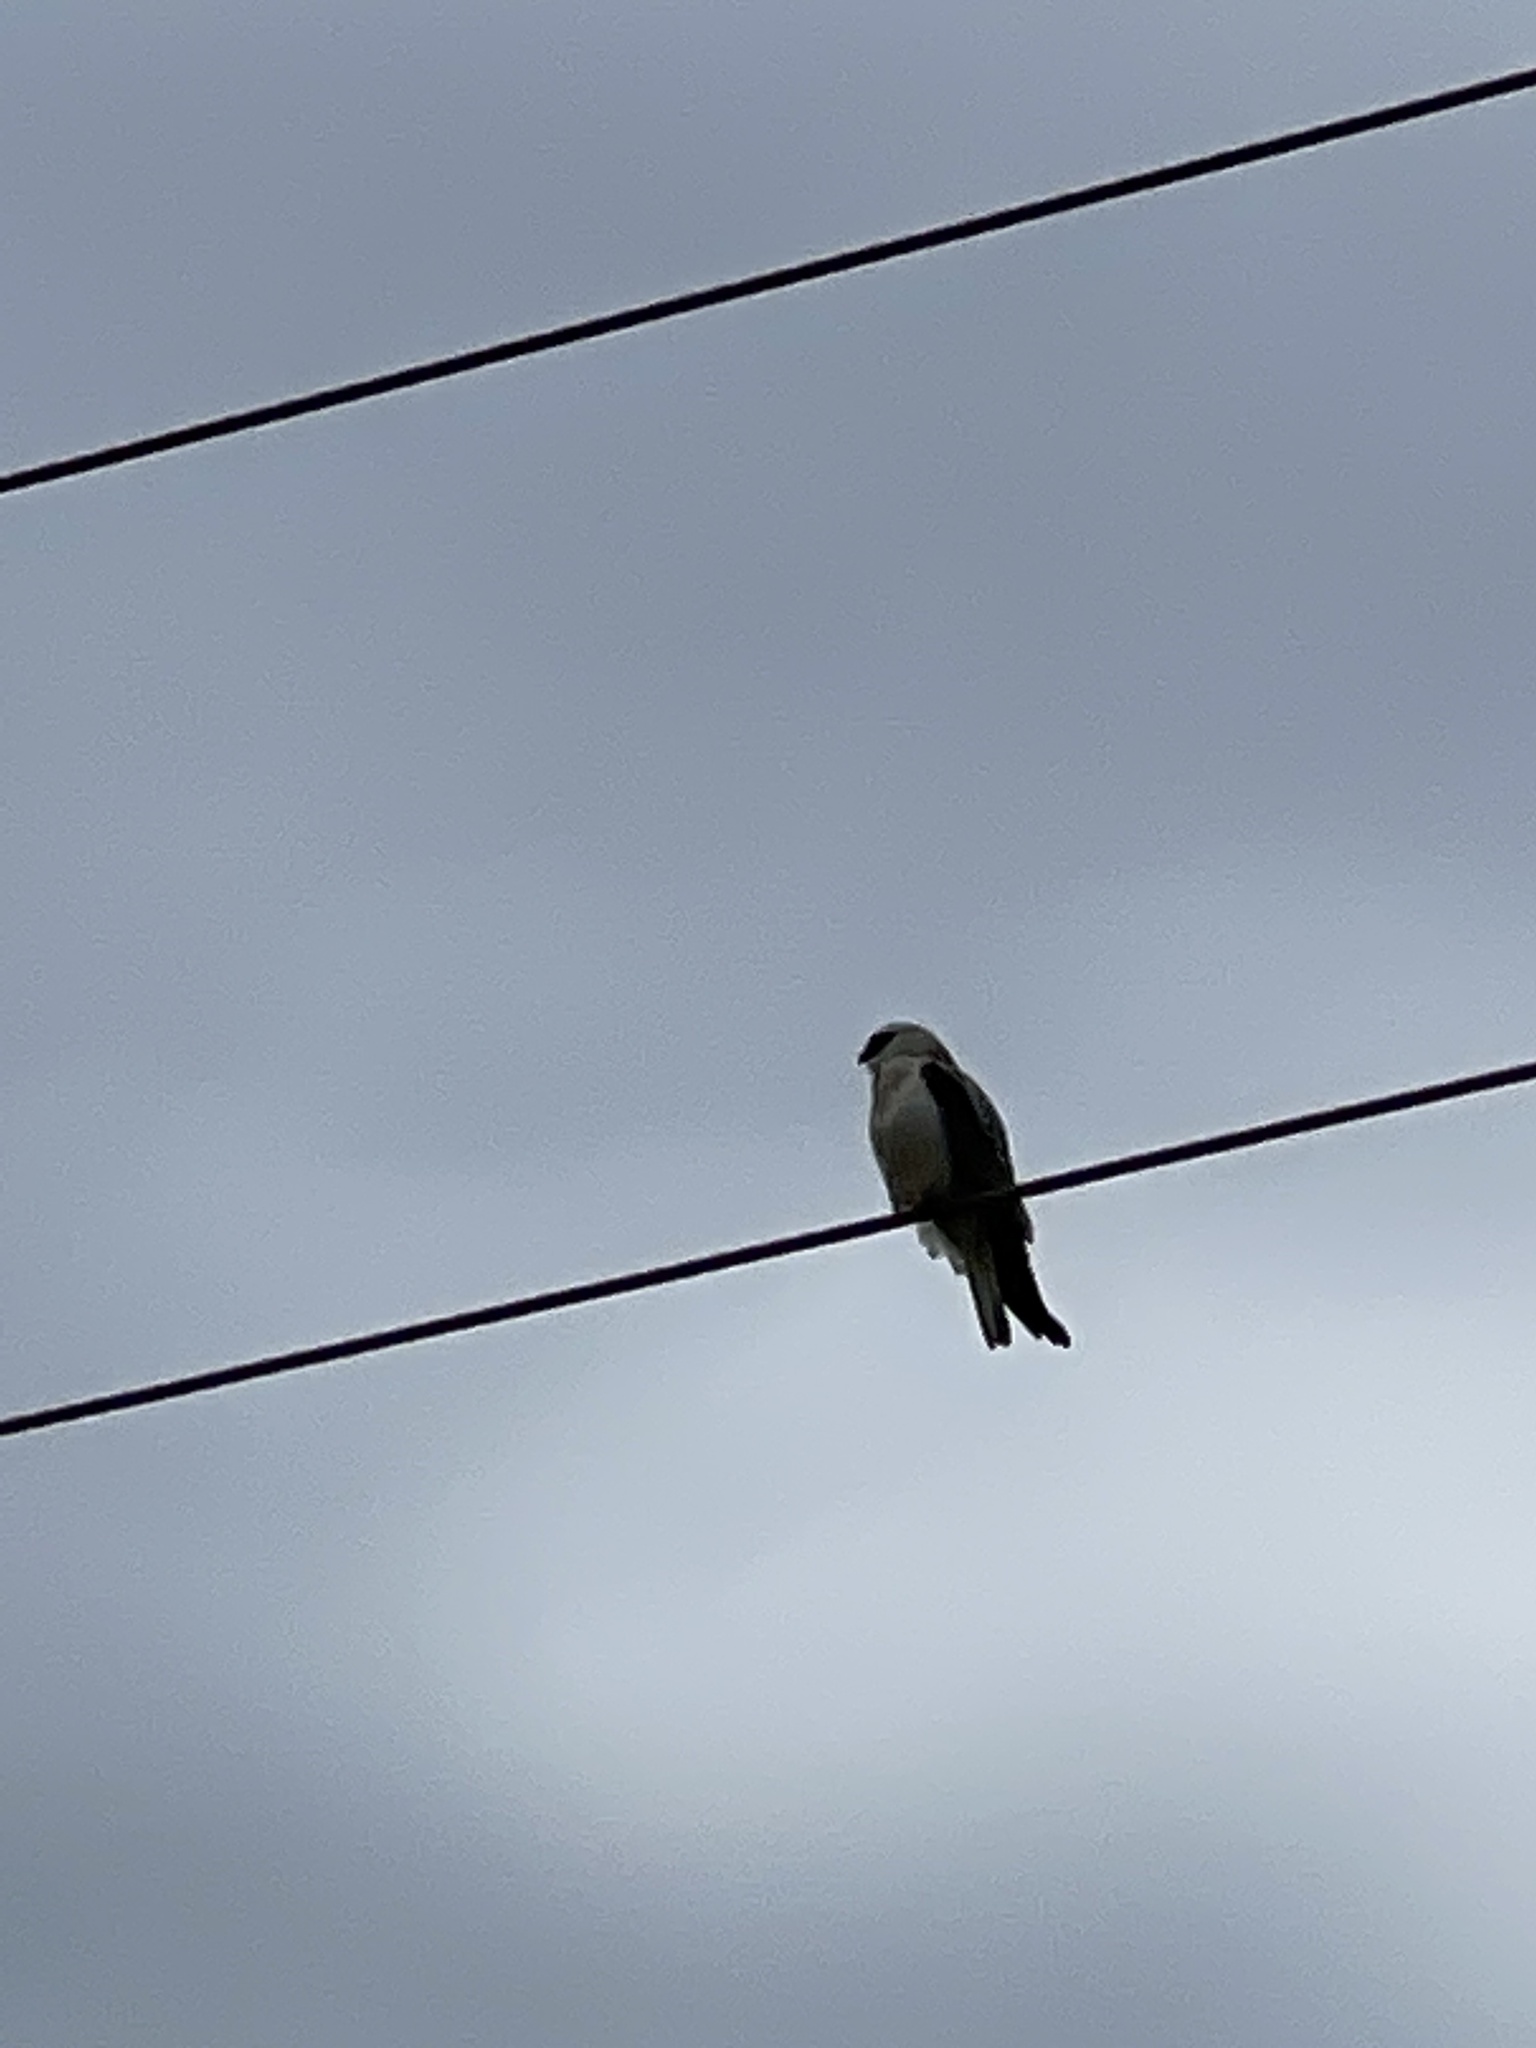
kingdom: Animalia
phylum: Chordata
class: Aves
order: Accipitriformes
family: Accipitridae
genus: Elanus
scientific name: Elanus axillaris
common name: Black-shouldered kite
